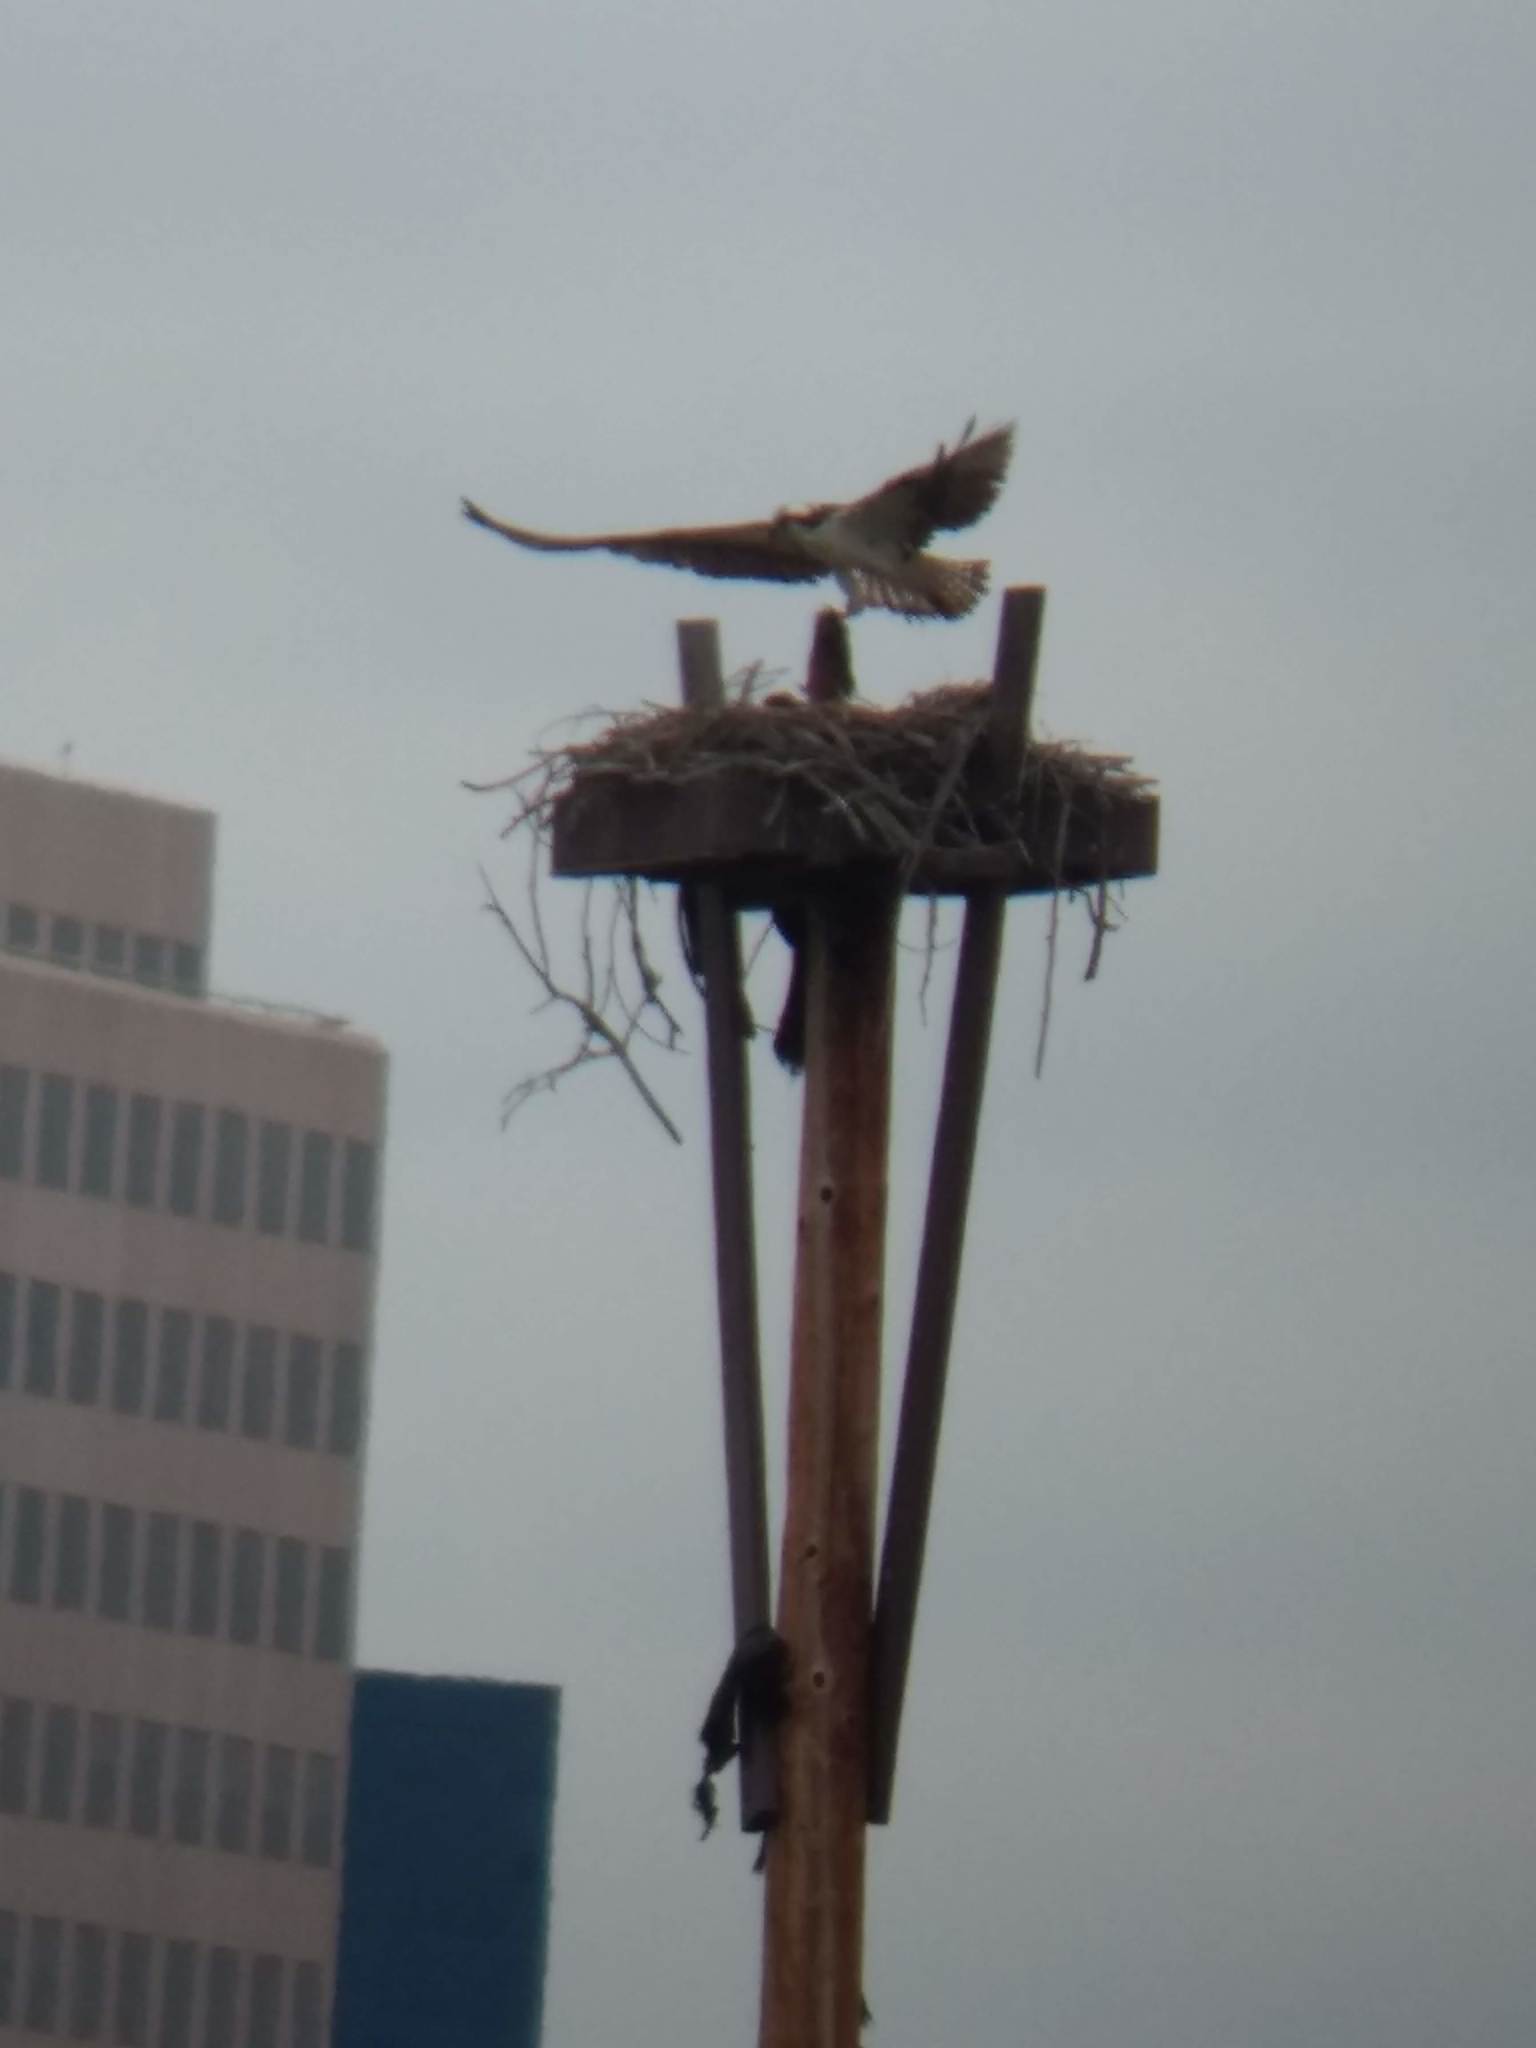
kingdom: Animalia
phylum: Chordata
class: Aves
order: Accipitriformes
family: Pandionidae
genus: Pandion
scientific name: Pandion haliaetus
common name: Osprey
